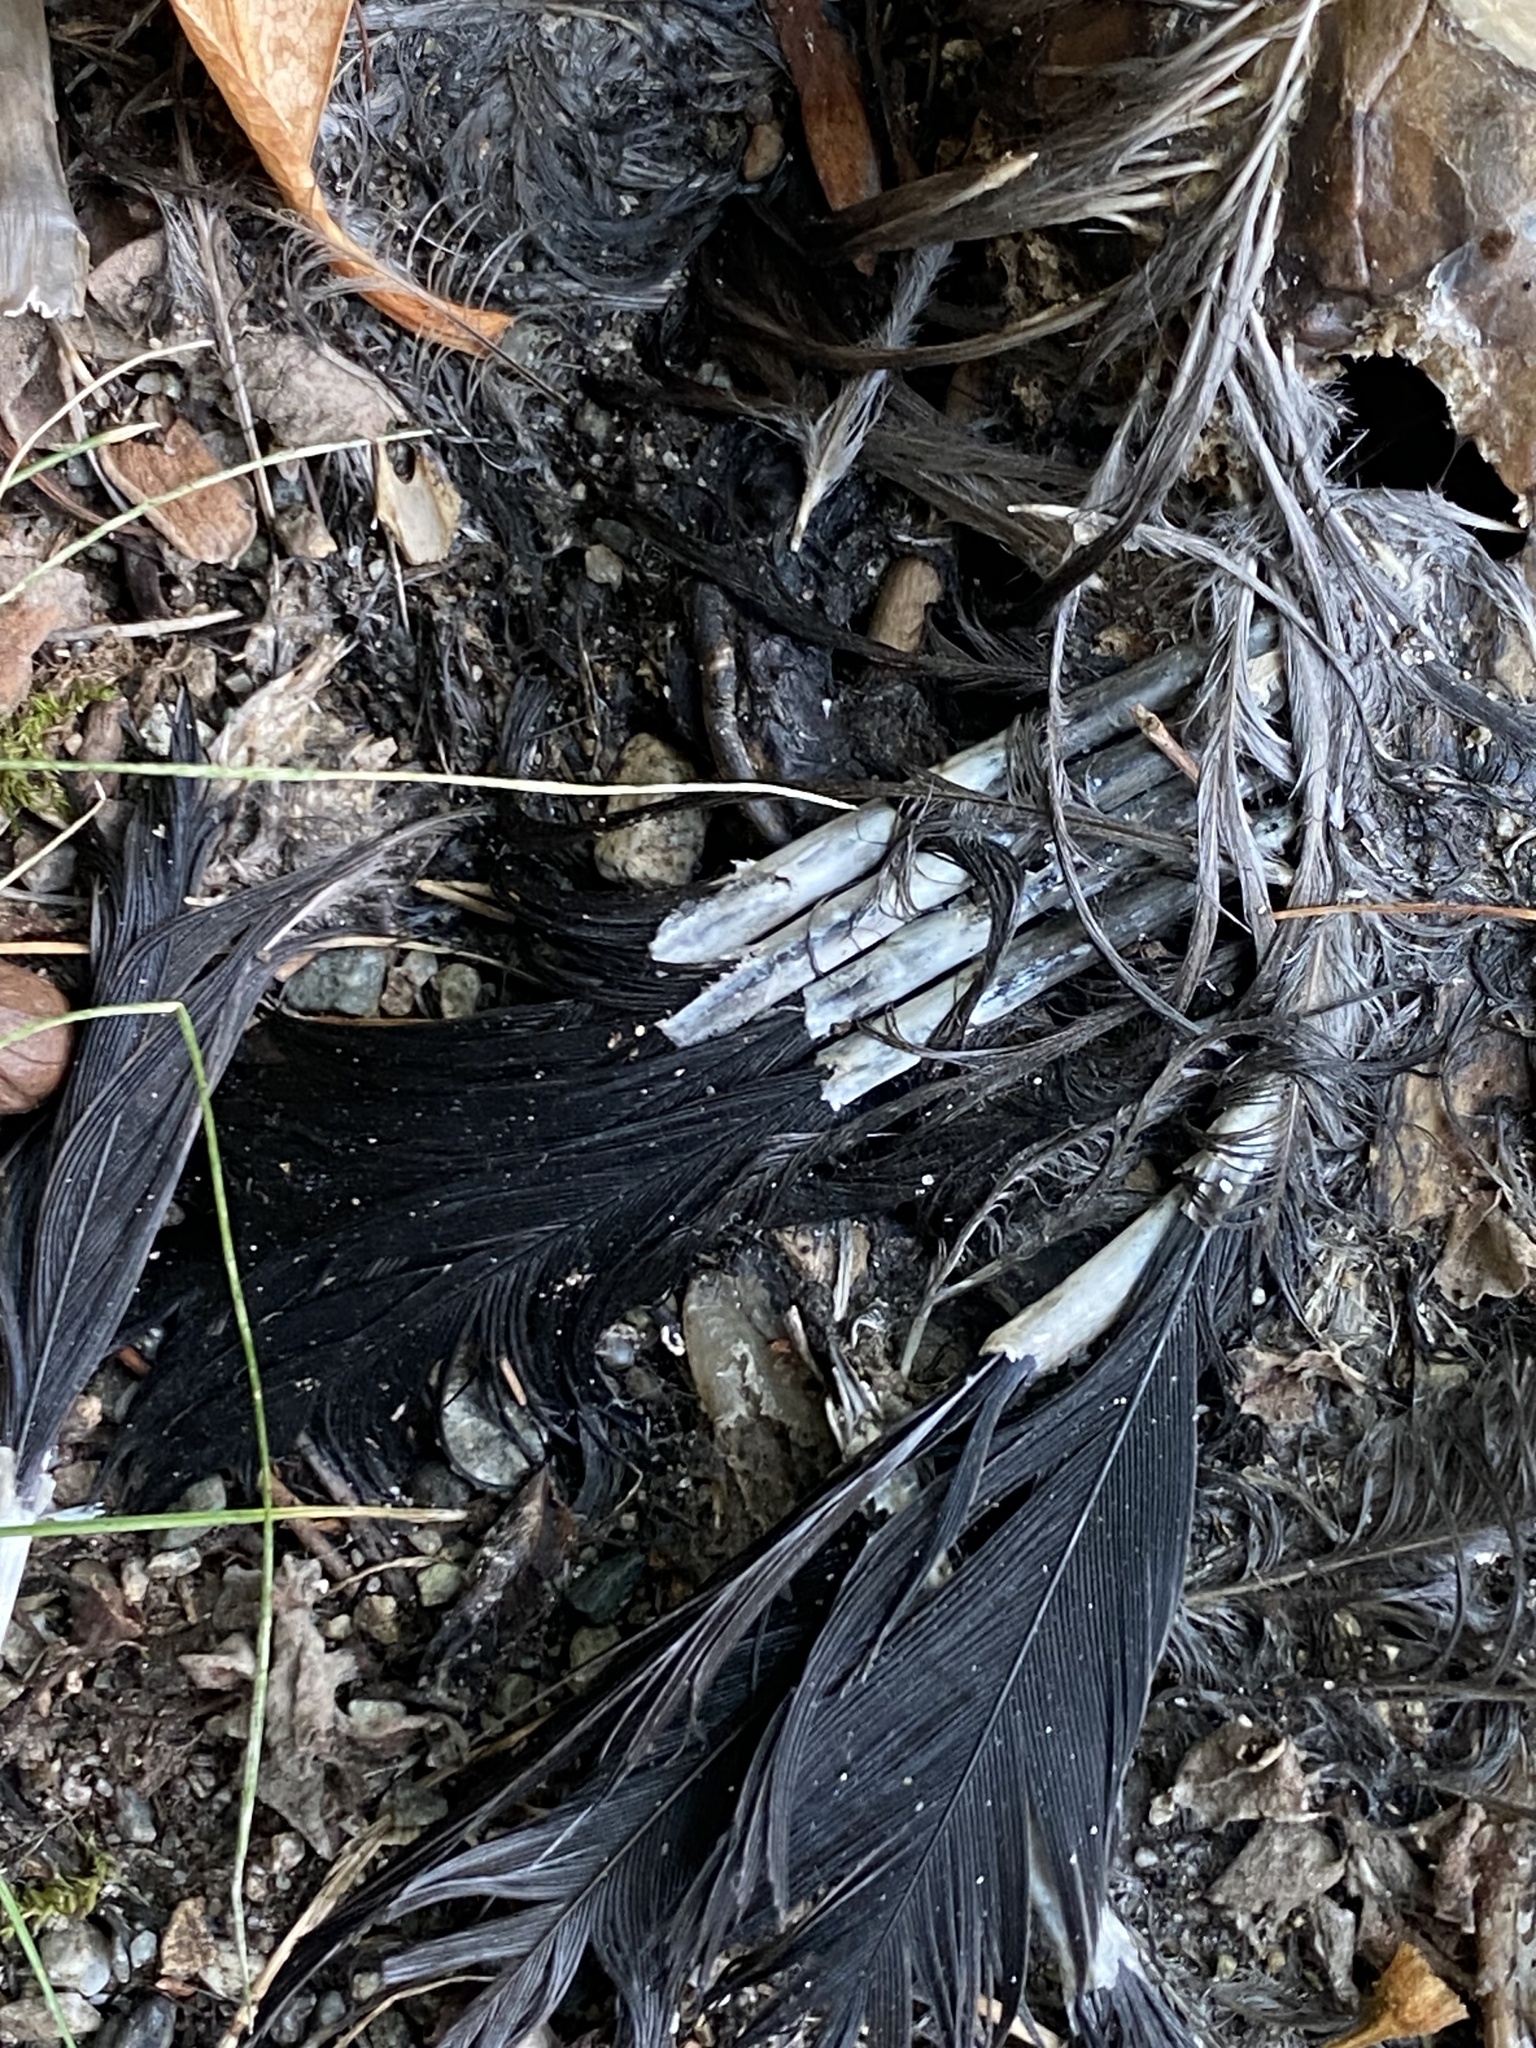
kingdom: Animalia
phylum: Chordata
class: Aves
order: Passeriformes
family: Corvidae
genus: Corvus
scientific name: Corvus brachyrhynchos
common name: American crow
